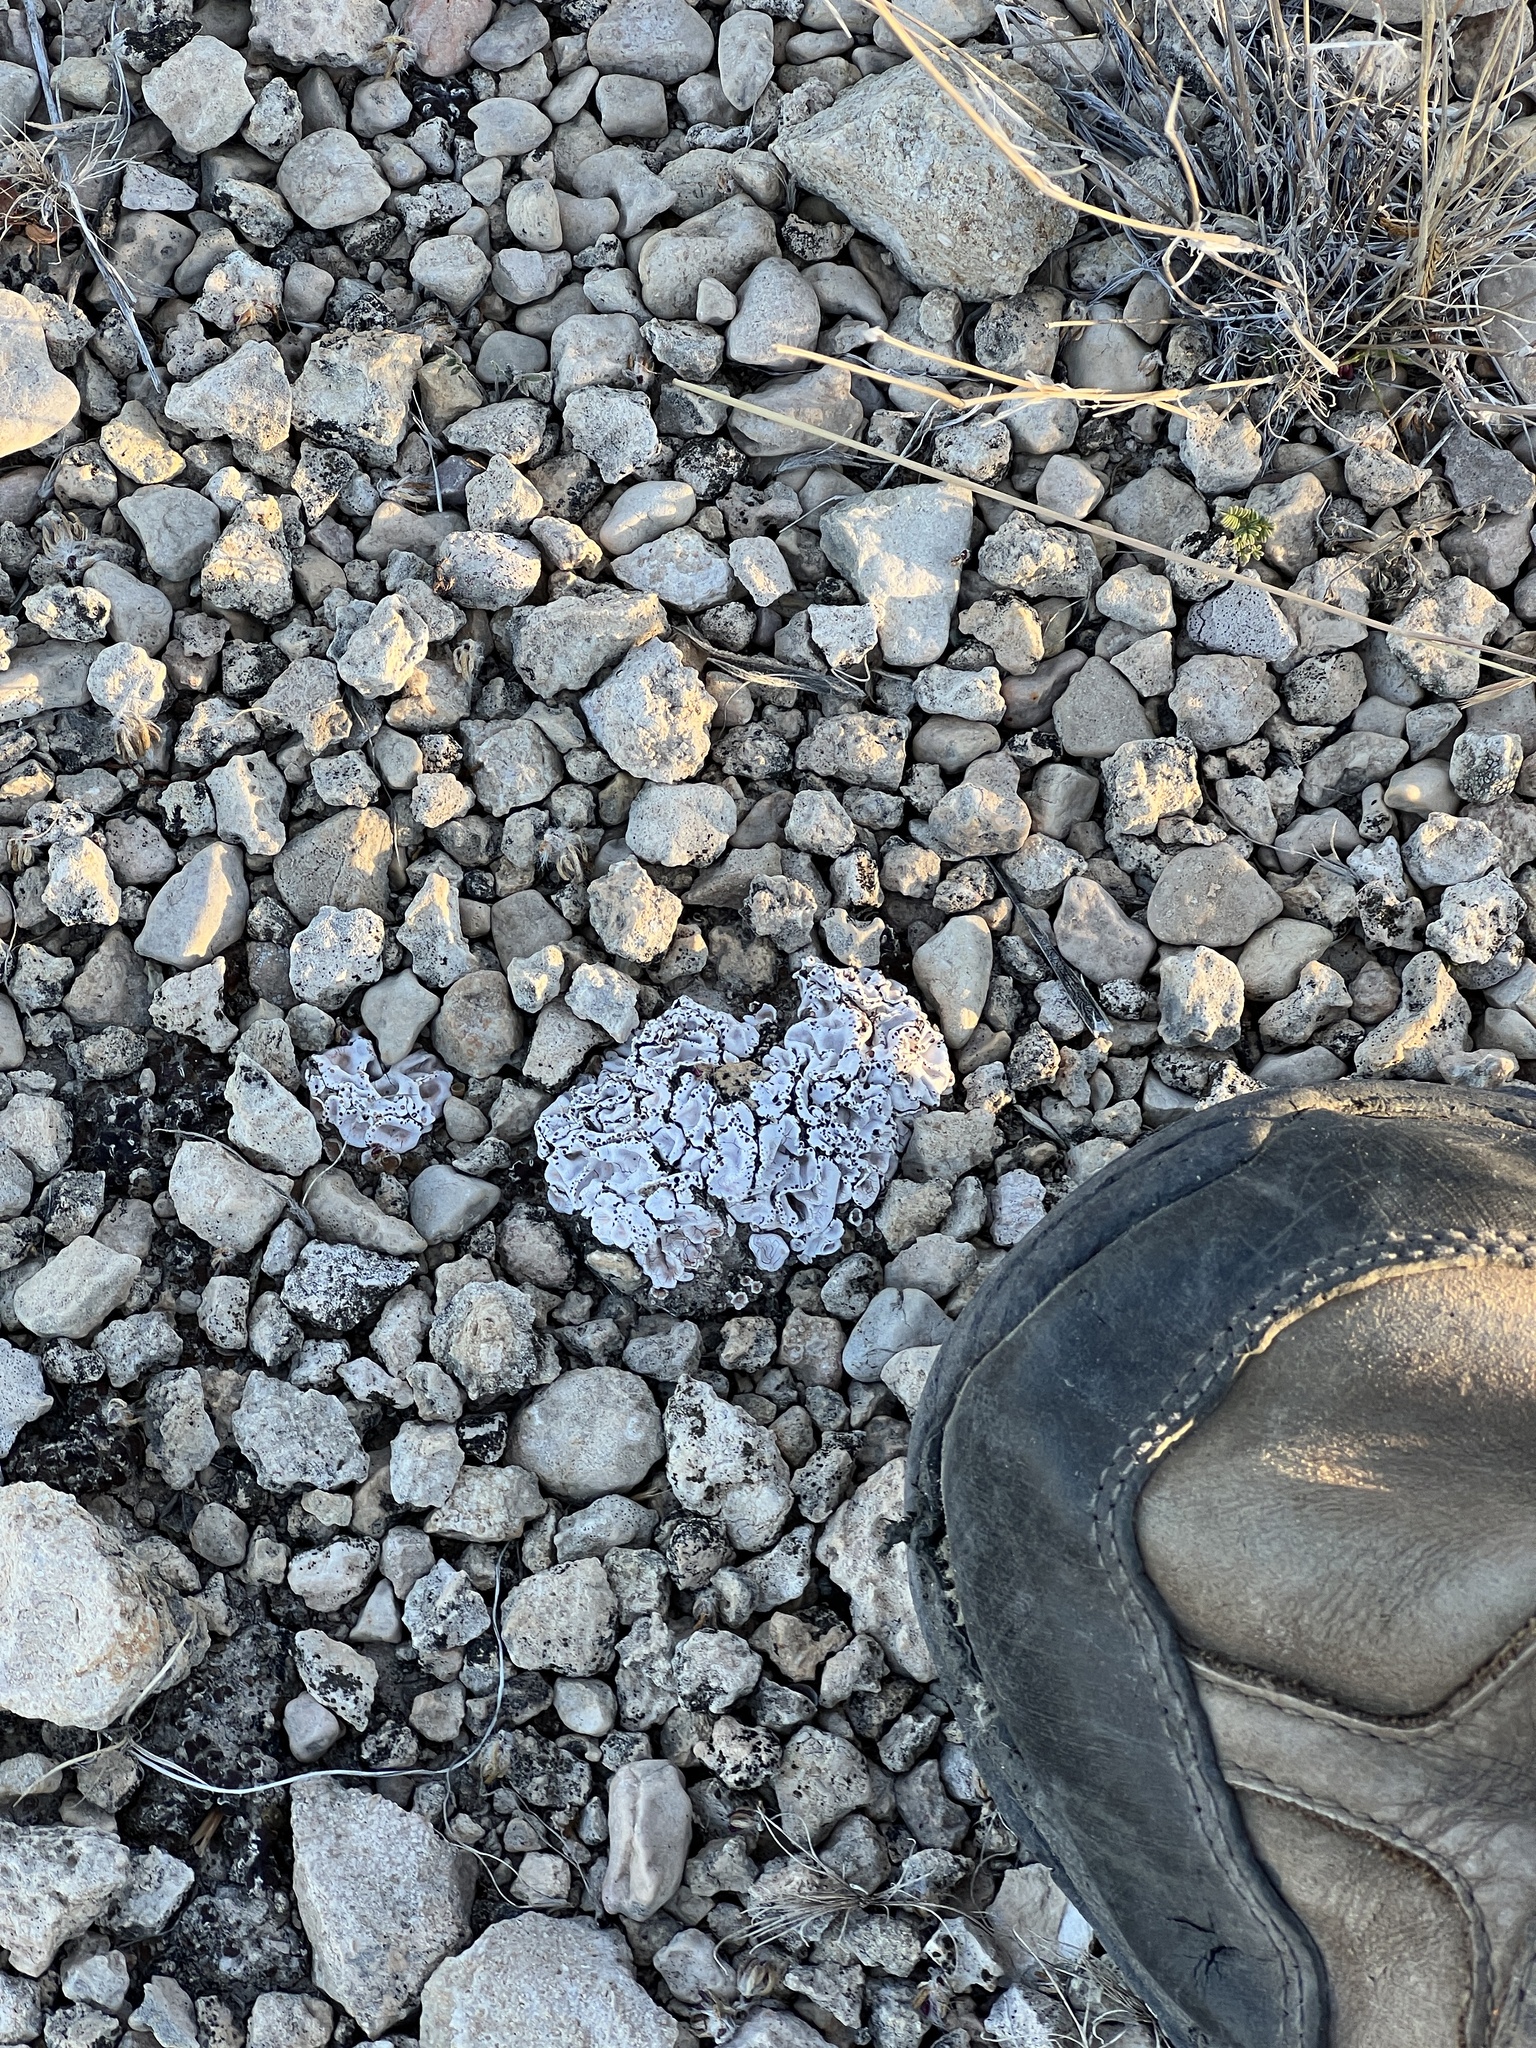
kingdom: Fungi
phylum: Ascomycota
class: Lecanoromycetes
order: Lecanorales
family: Psoraceae
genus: Psora
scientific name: Psora crenata
